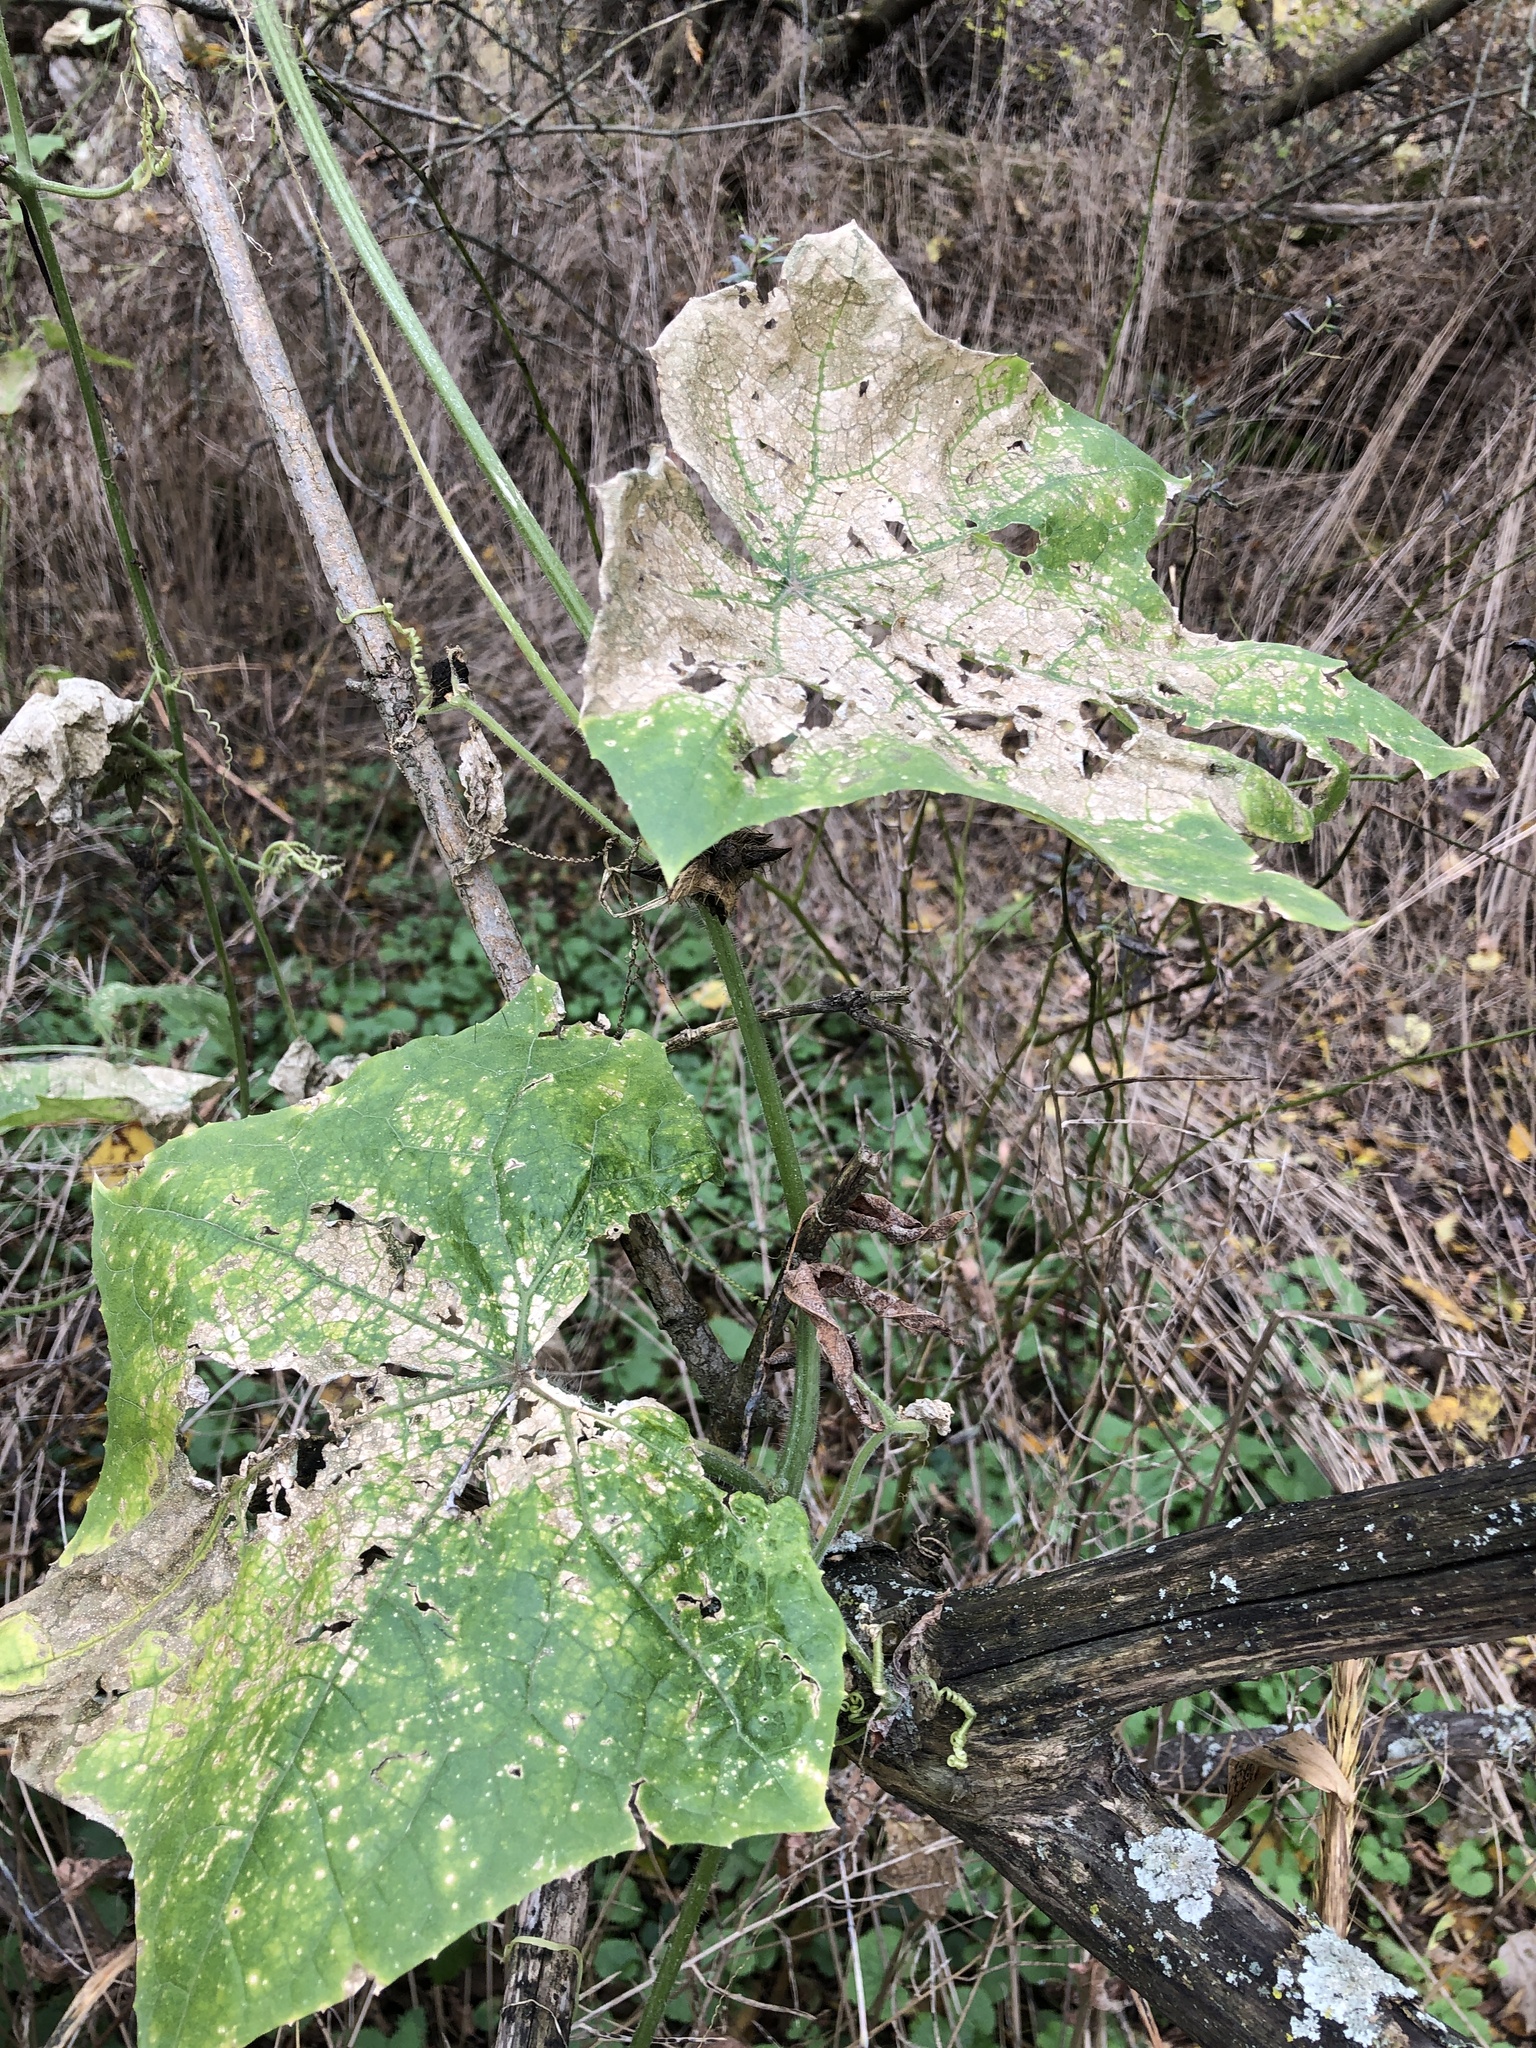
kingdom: Plantae
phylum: Tracheophyta
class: Magnoliopsida
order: Cucurbitales
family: Cucurbitaceae
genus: Sicyos
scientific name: Sicyos angulatus
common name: Angled burr cucumber
